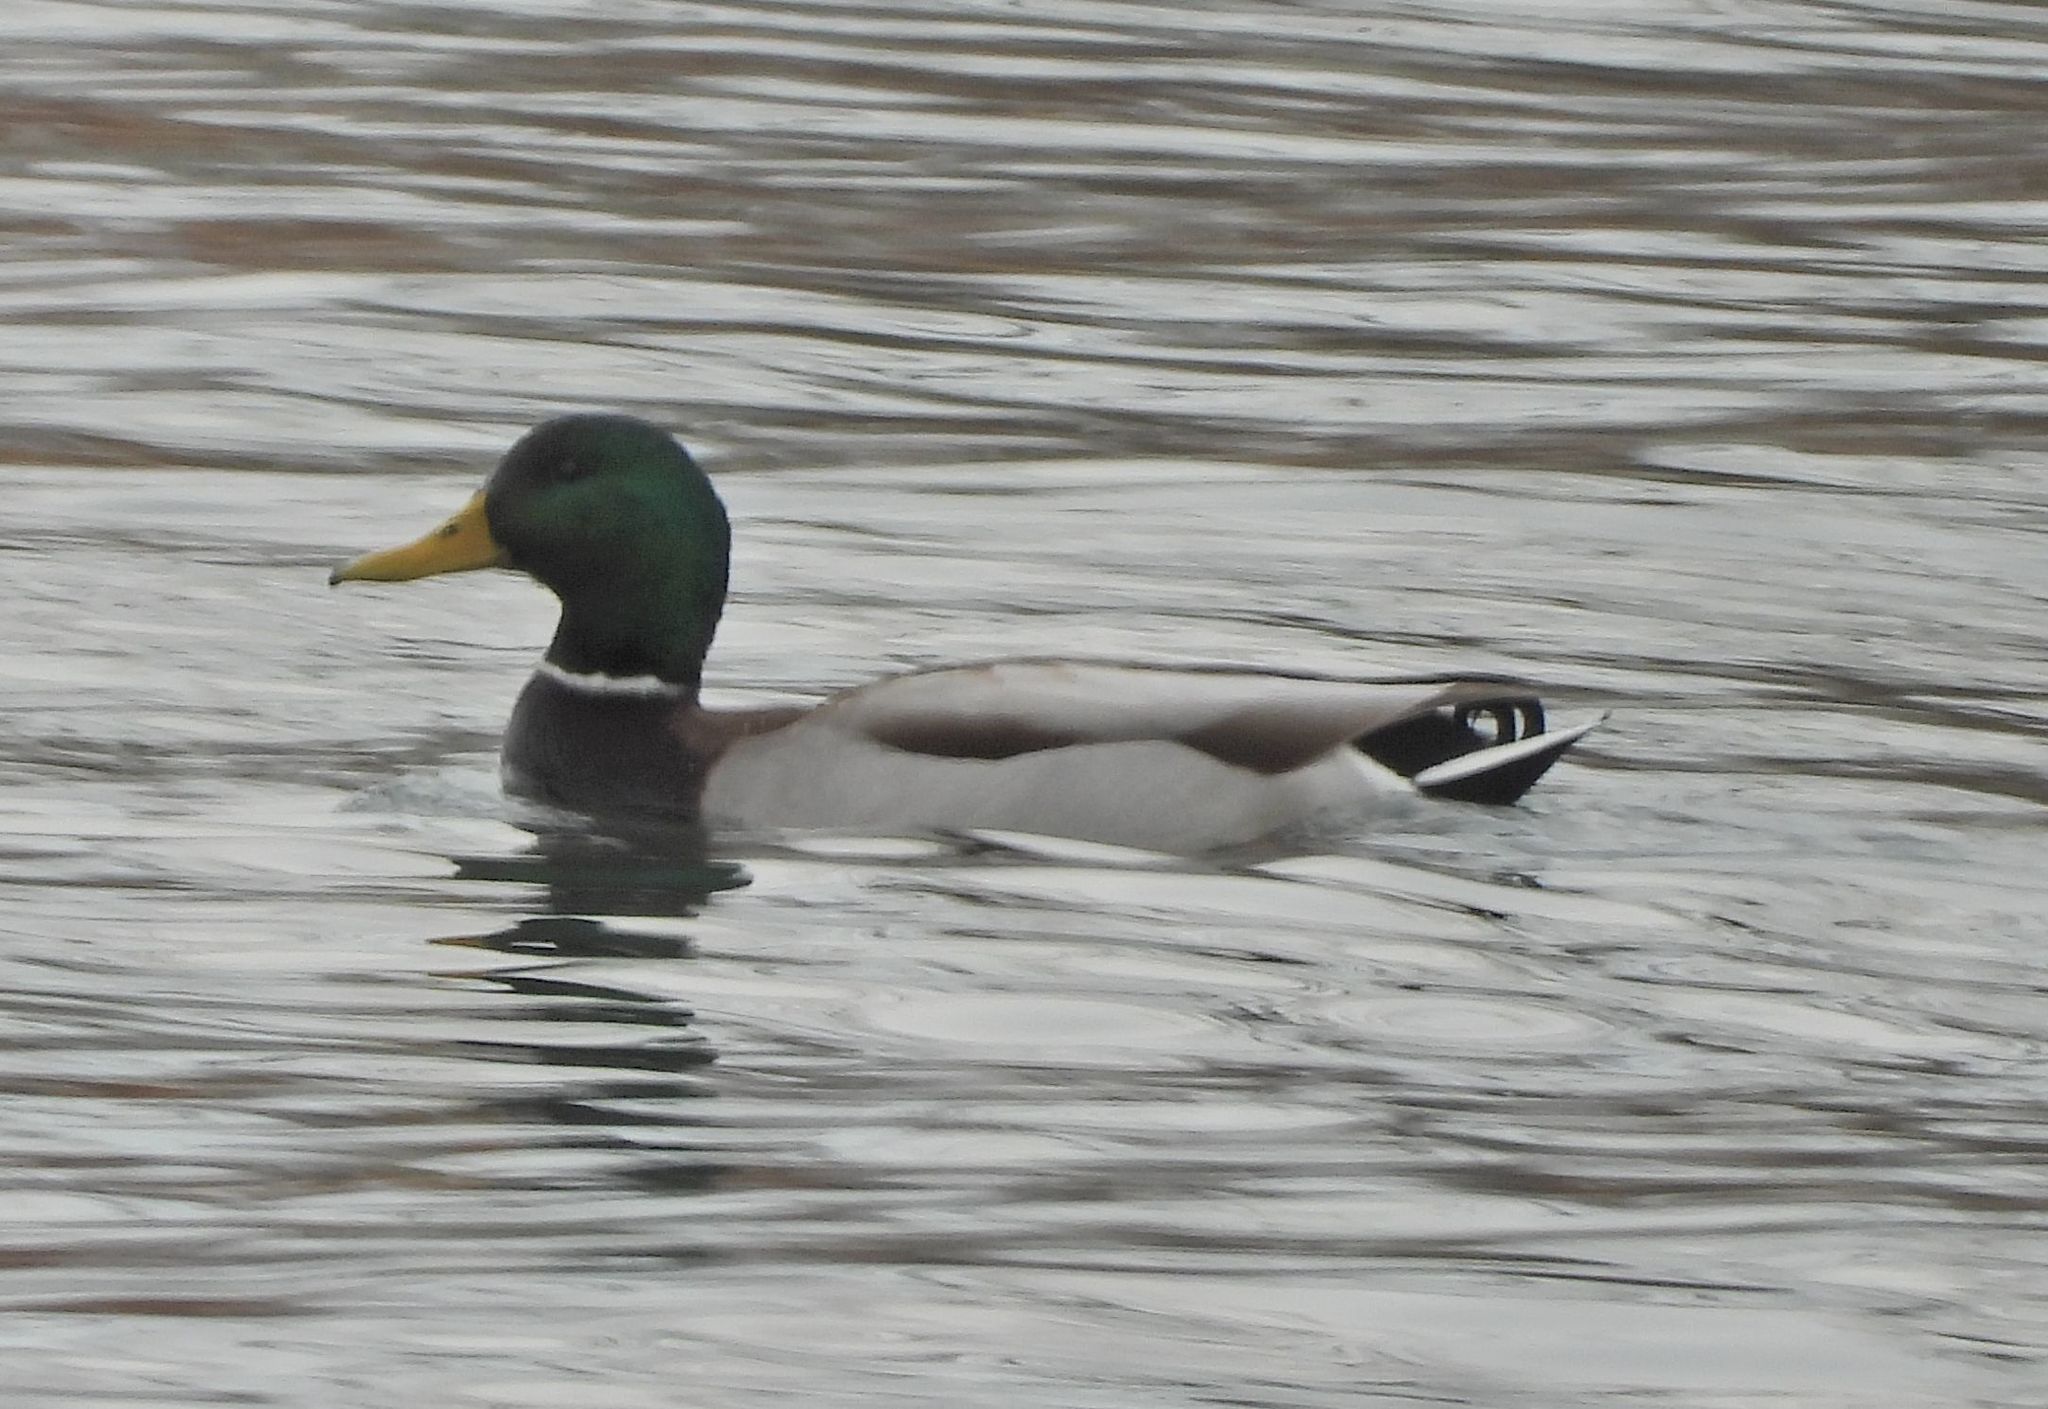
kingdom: Animalia
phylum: Chordata
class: Aves
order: Anseriformes
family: Anatidae
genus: Anas
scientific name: Anas platyrhynchos
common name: Mallard
